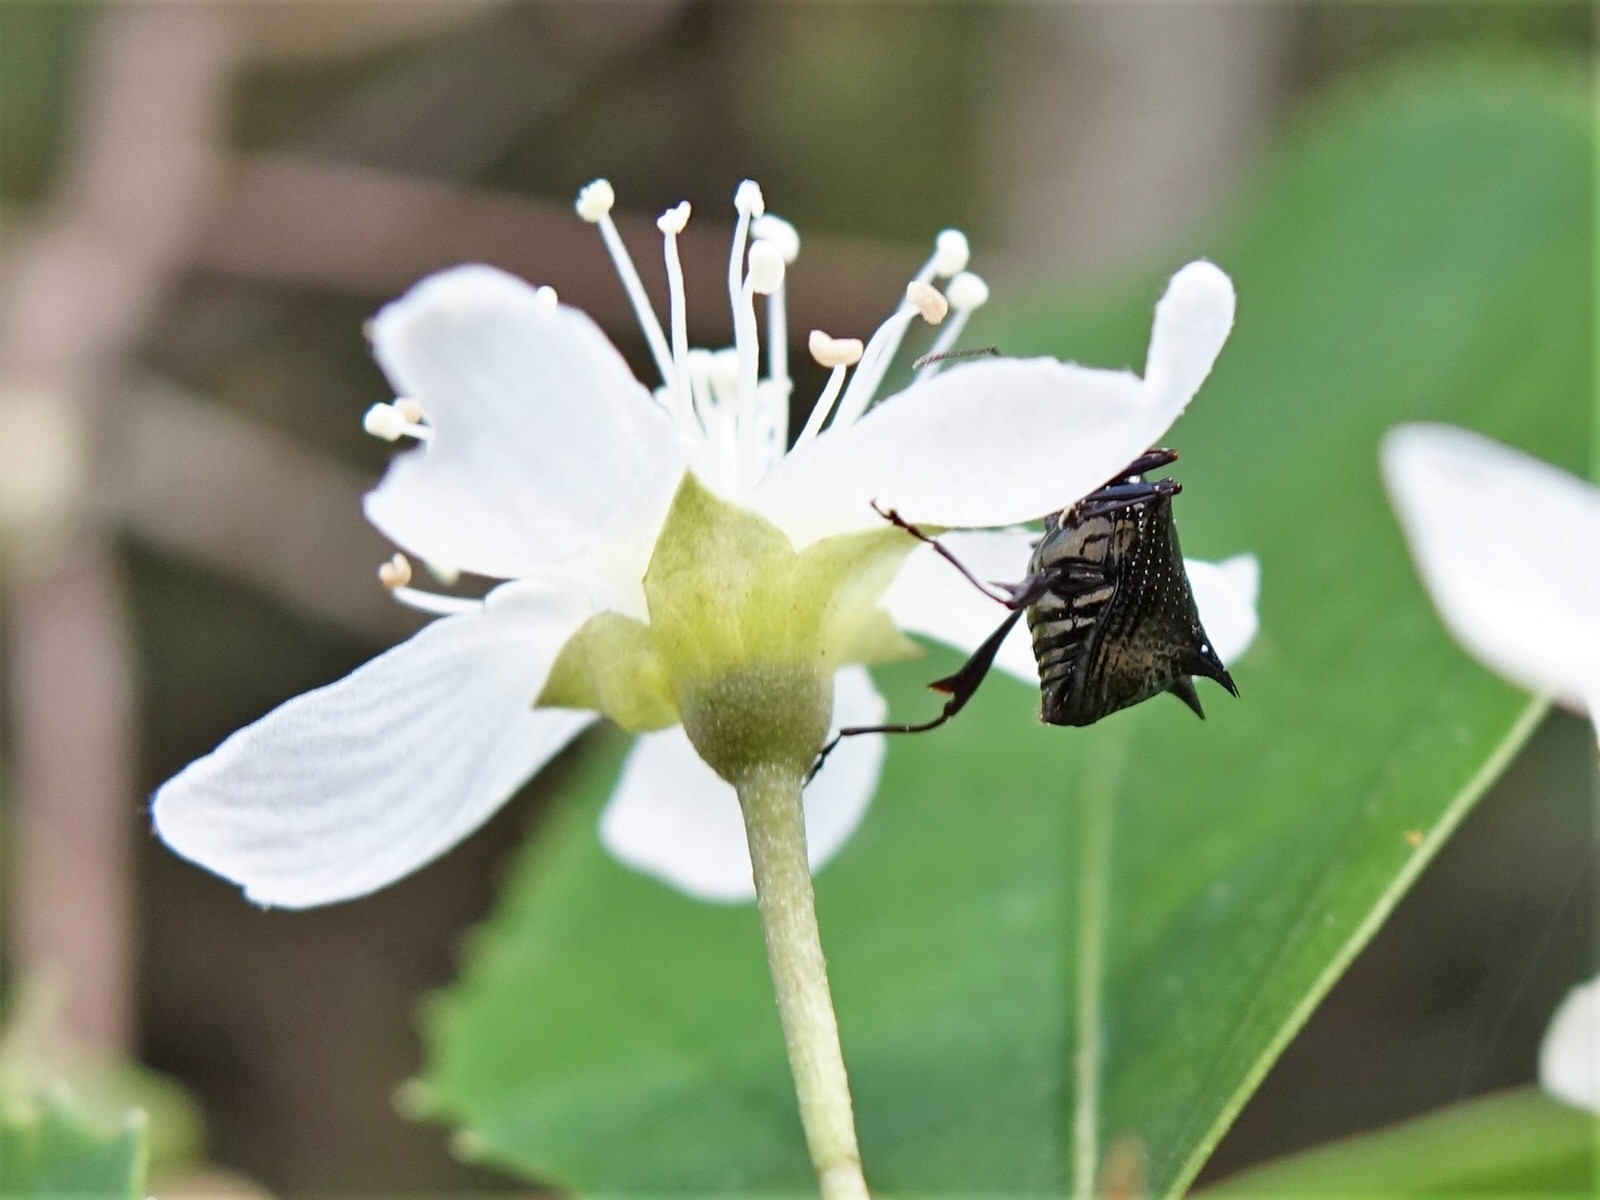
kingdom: Animalia
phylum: Arthropoda
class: Insecta
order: Coleoptera
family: Curculionidae
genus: Scolopterus
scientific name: Scolopterus aequus
